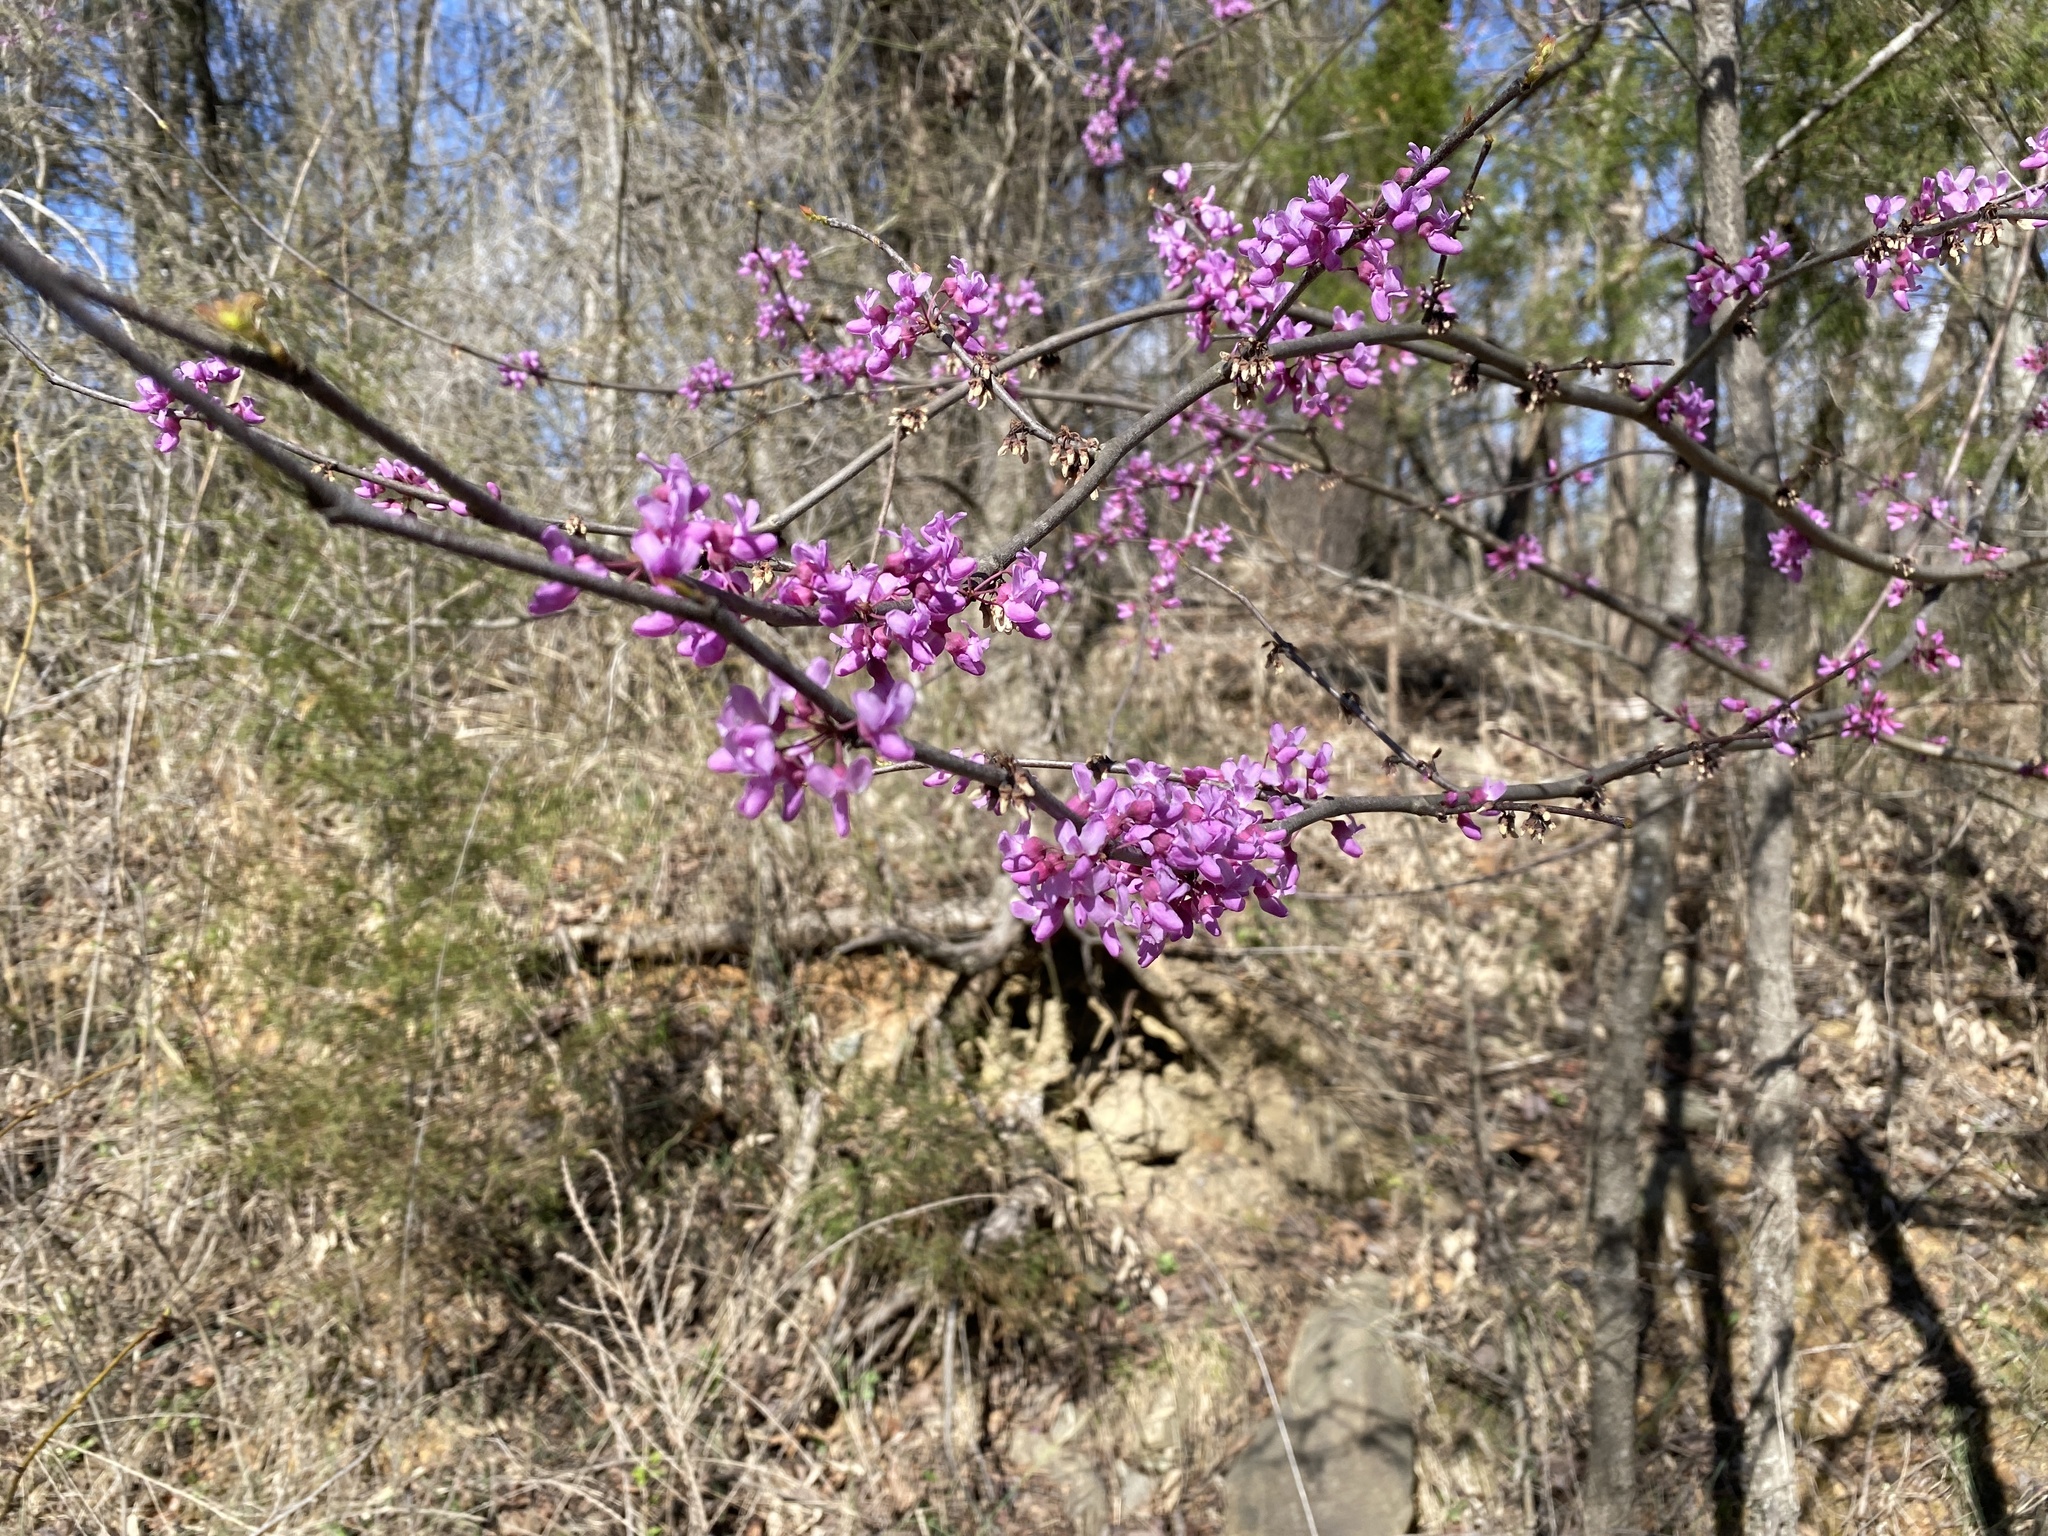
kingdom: Plantae
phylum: Tracheophyta
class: Magnoliopsida
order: Fabales
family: Fabaceae
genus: Cercis
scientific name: Cercis canadensis
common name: Eastern redbud
